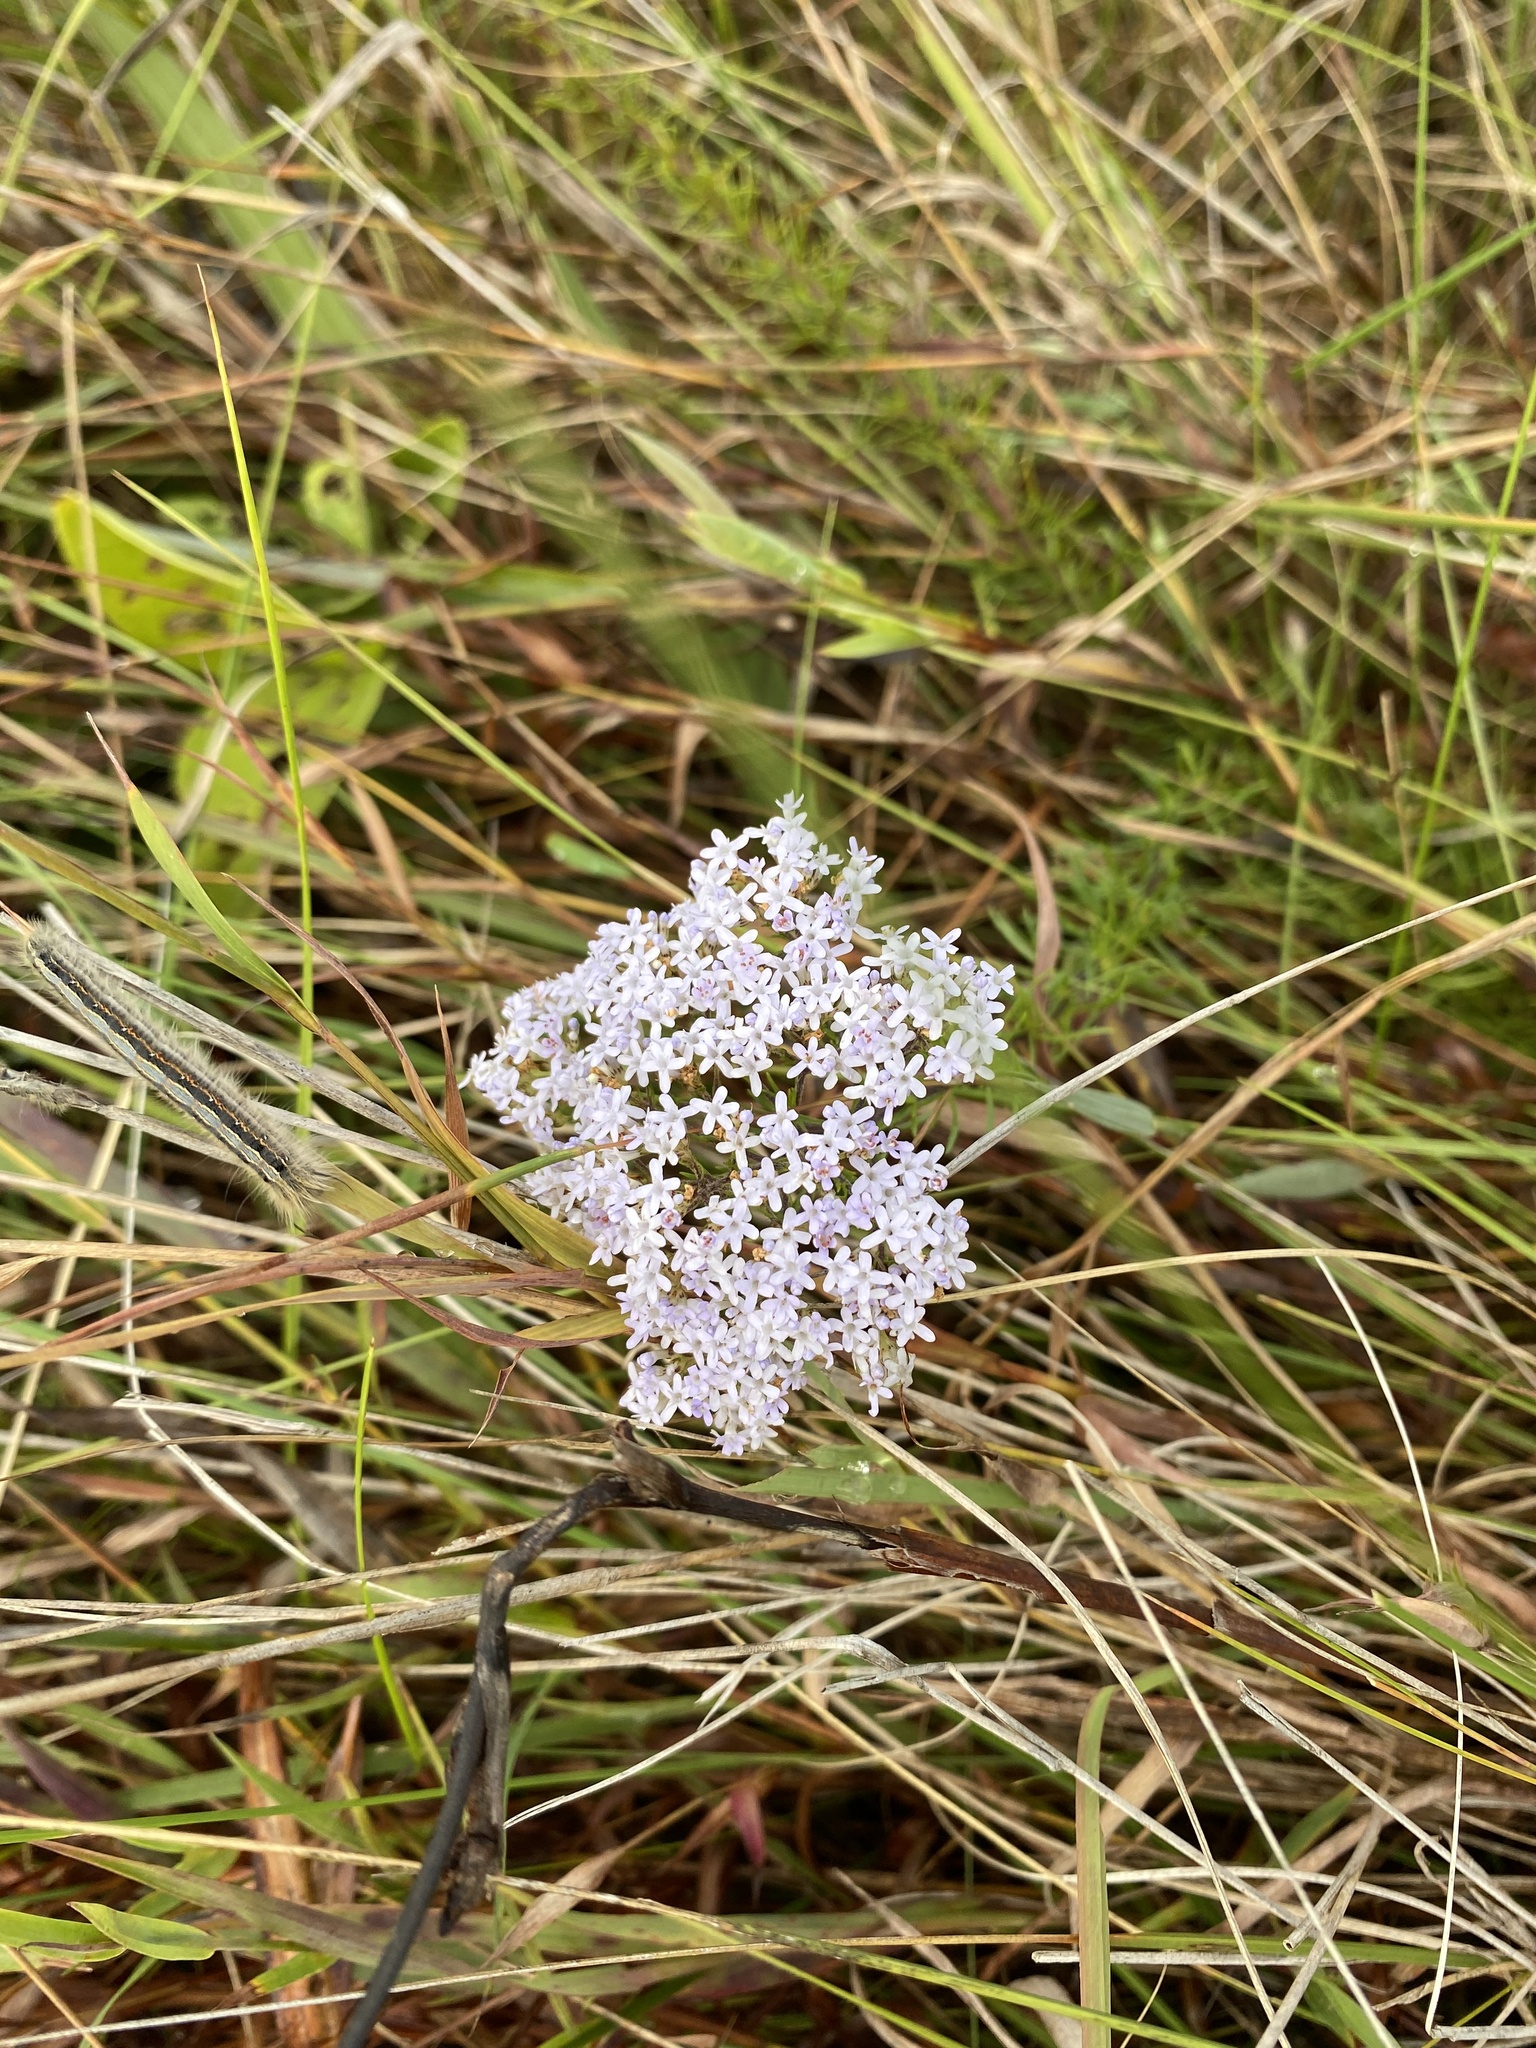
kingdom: Plantae
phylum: Tracheophyta
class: Magnoliopsida
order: Lamiales
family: Scrophulariaceae
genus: Tetraselago
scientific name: Tetraselago natalensis
